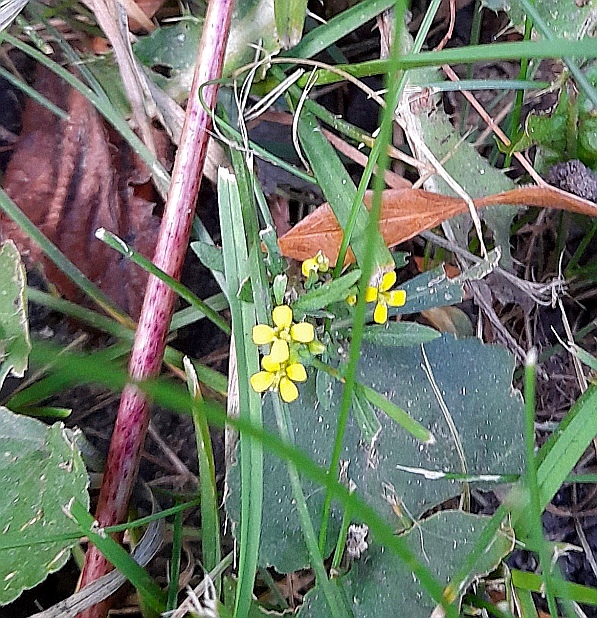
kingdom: Plantae
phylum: Tracheophyta
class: Magnoliopsida
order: Brassicales
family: Brassicaceae
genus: Erysimum
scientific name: Erysimum cheiranthoides
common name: Treacle mustard
